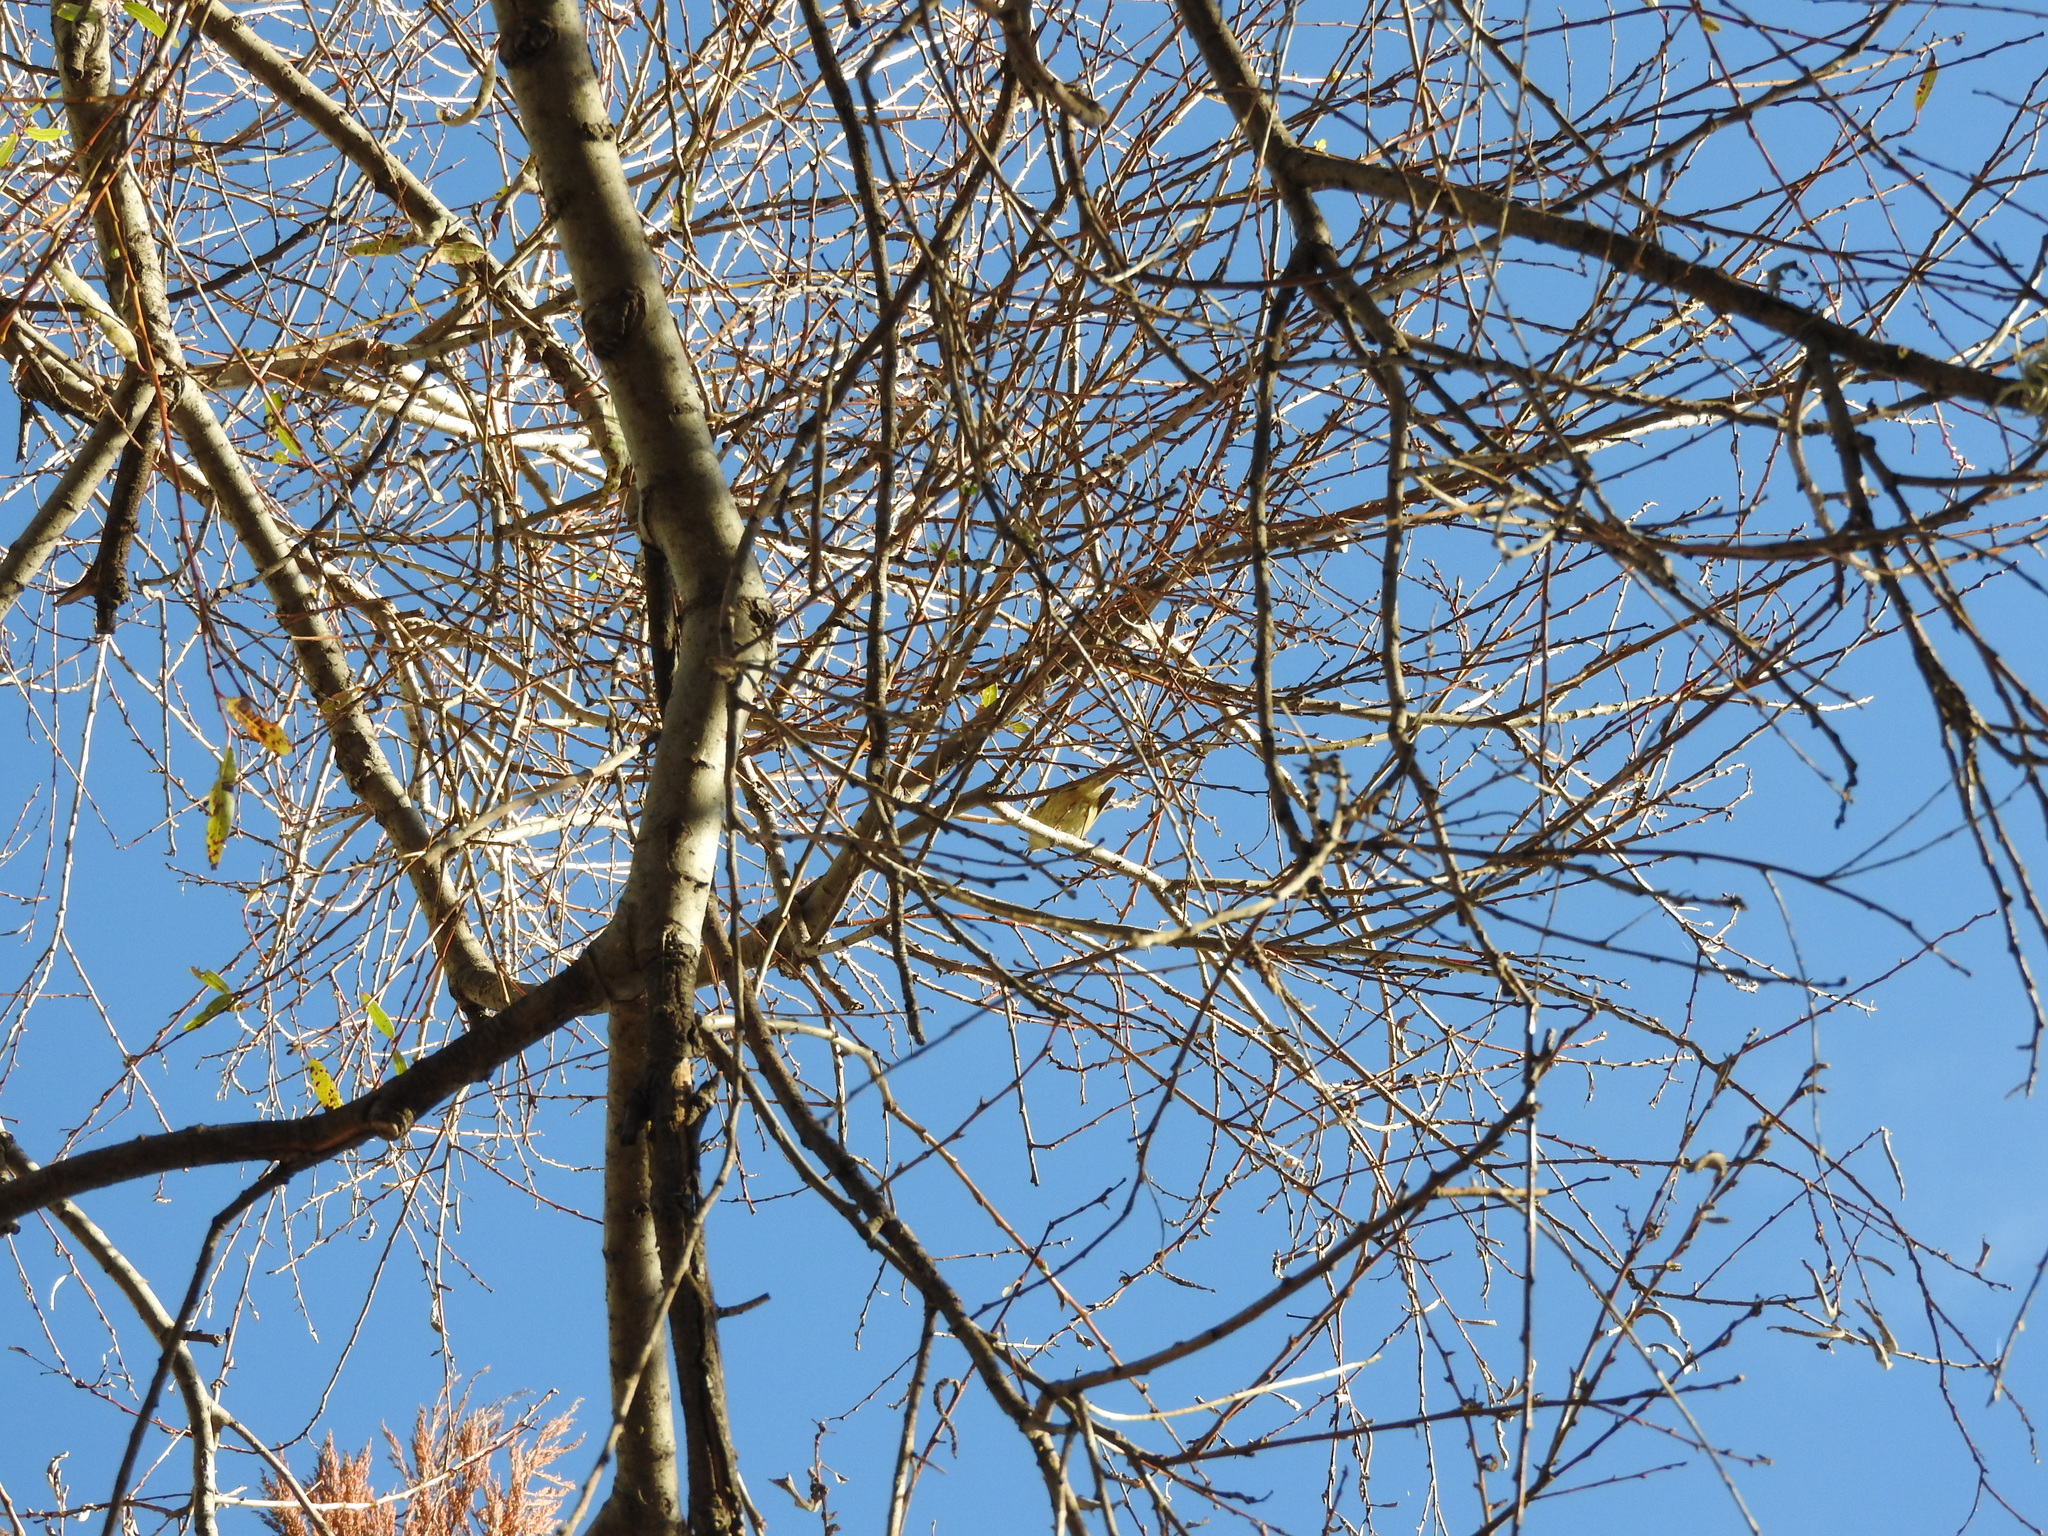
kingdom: Animalia
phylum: Chordata
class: Aves
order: Passeriformes
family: Parulidae
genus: Setophaga
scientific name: Setophaga petechia
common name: Yellow warbler
